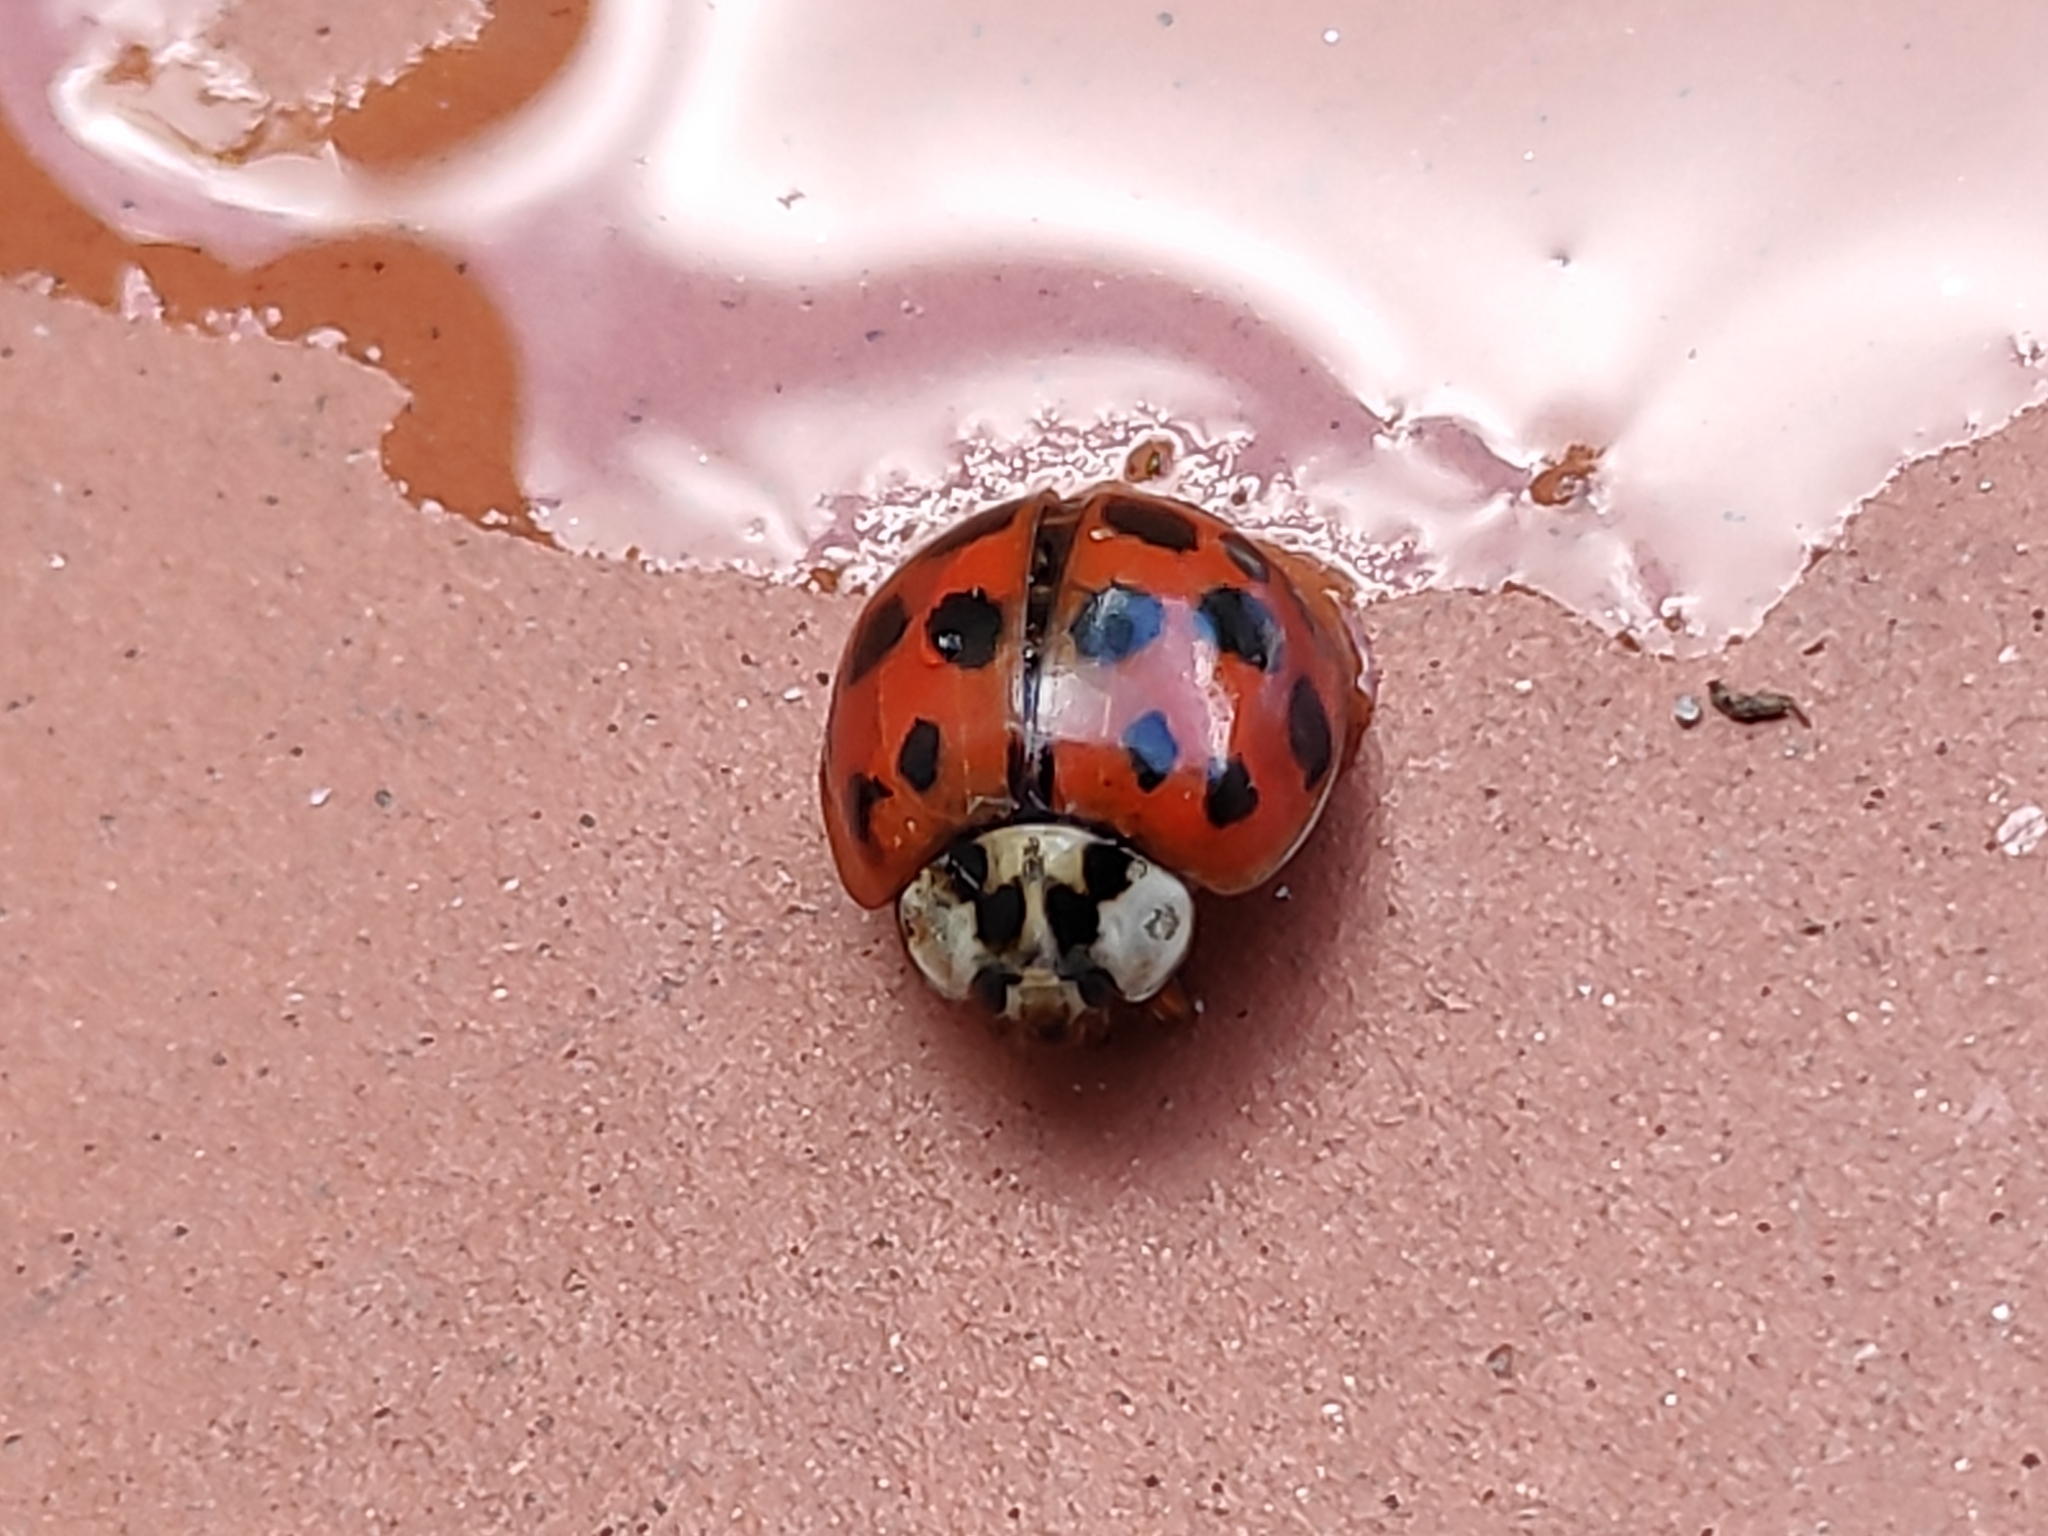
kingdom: Animalia
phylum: Arthropoda
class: Insecta
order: Coleoptera
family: Coccinellidae
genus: Harmonia
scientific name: Harmonia axyridis
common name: Harlequin ladybird
